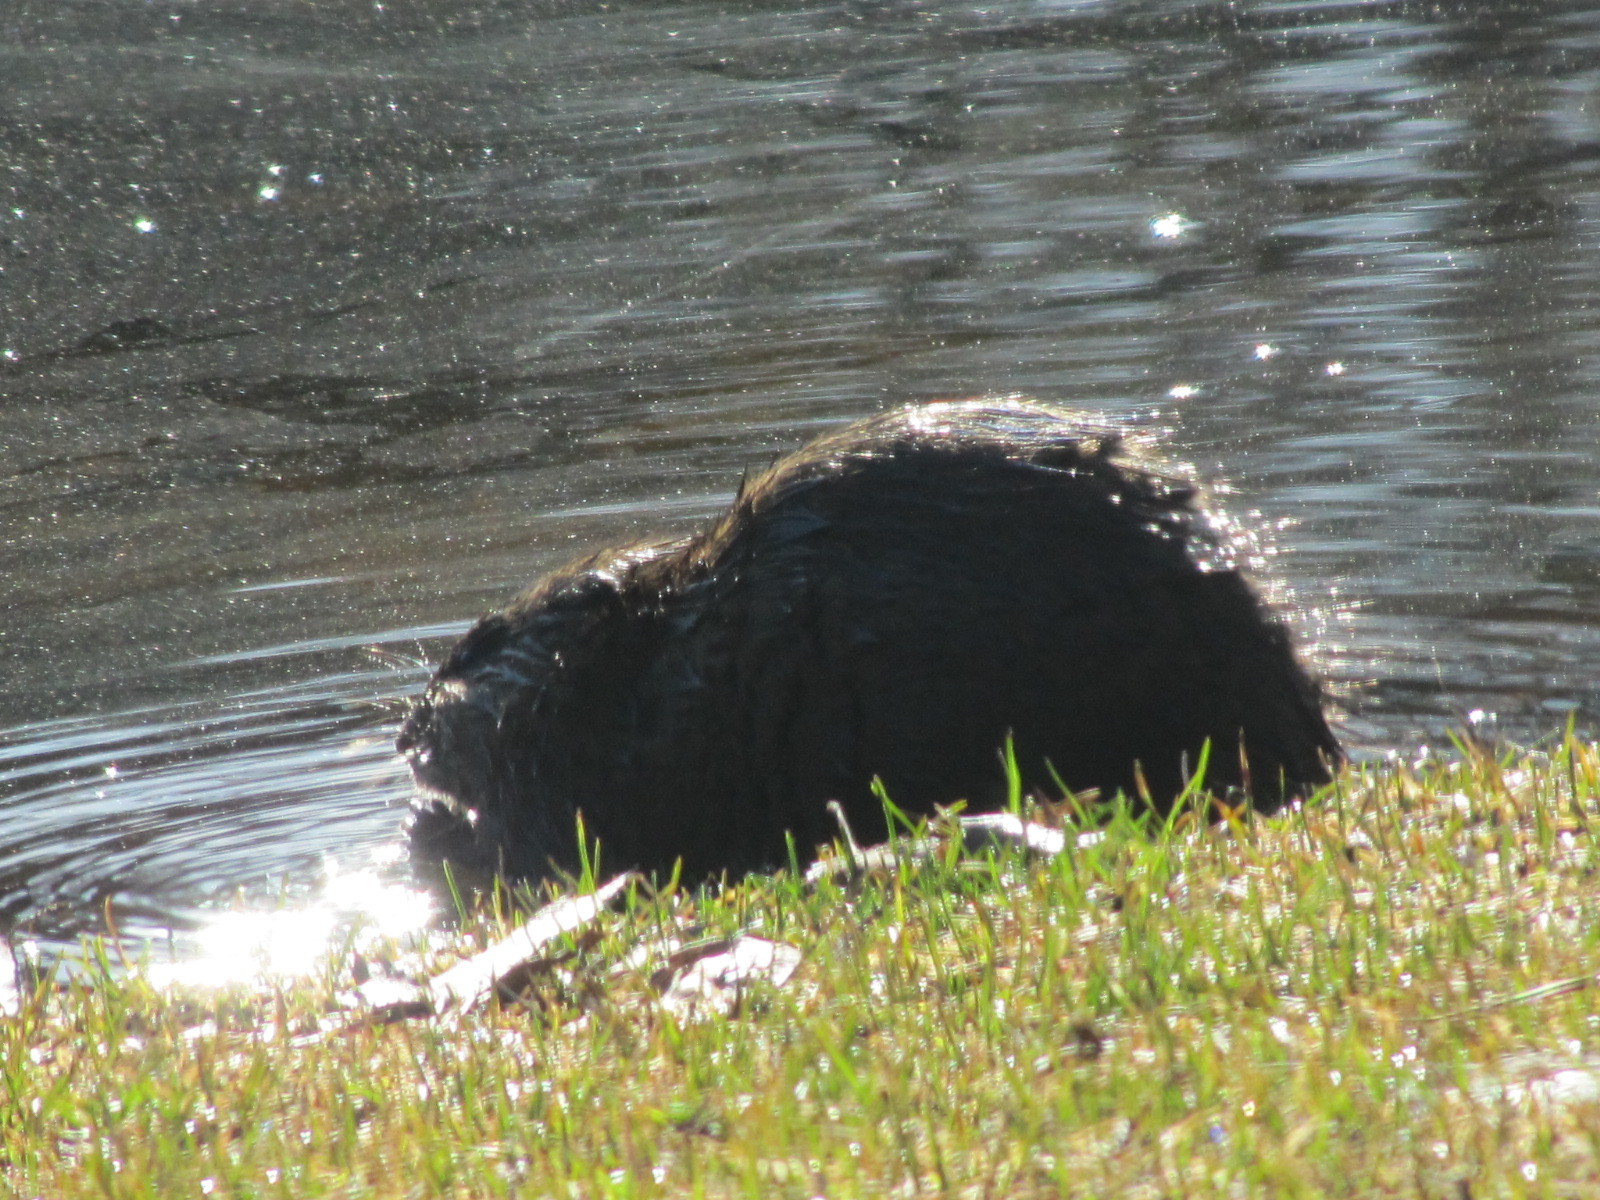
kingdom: Animalia
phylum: Chordata
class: Mammalia
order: Rodentia
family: Cricetidae
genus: Ondatra
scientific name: Ondatra zibethicus
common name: Muskrat
